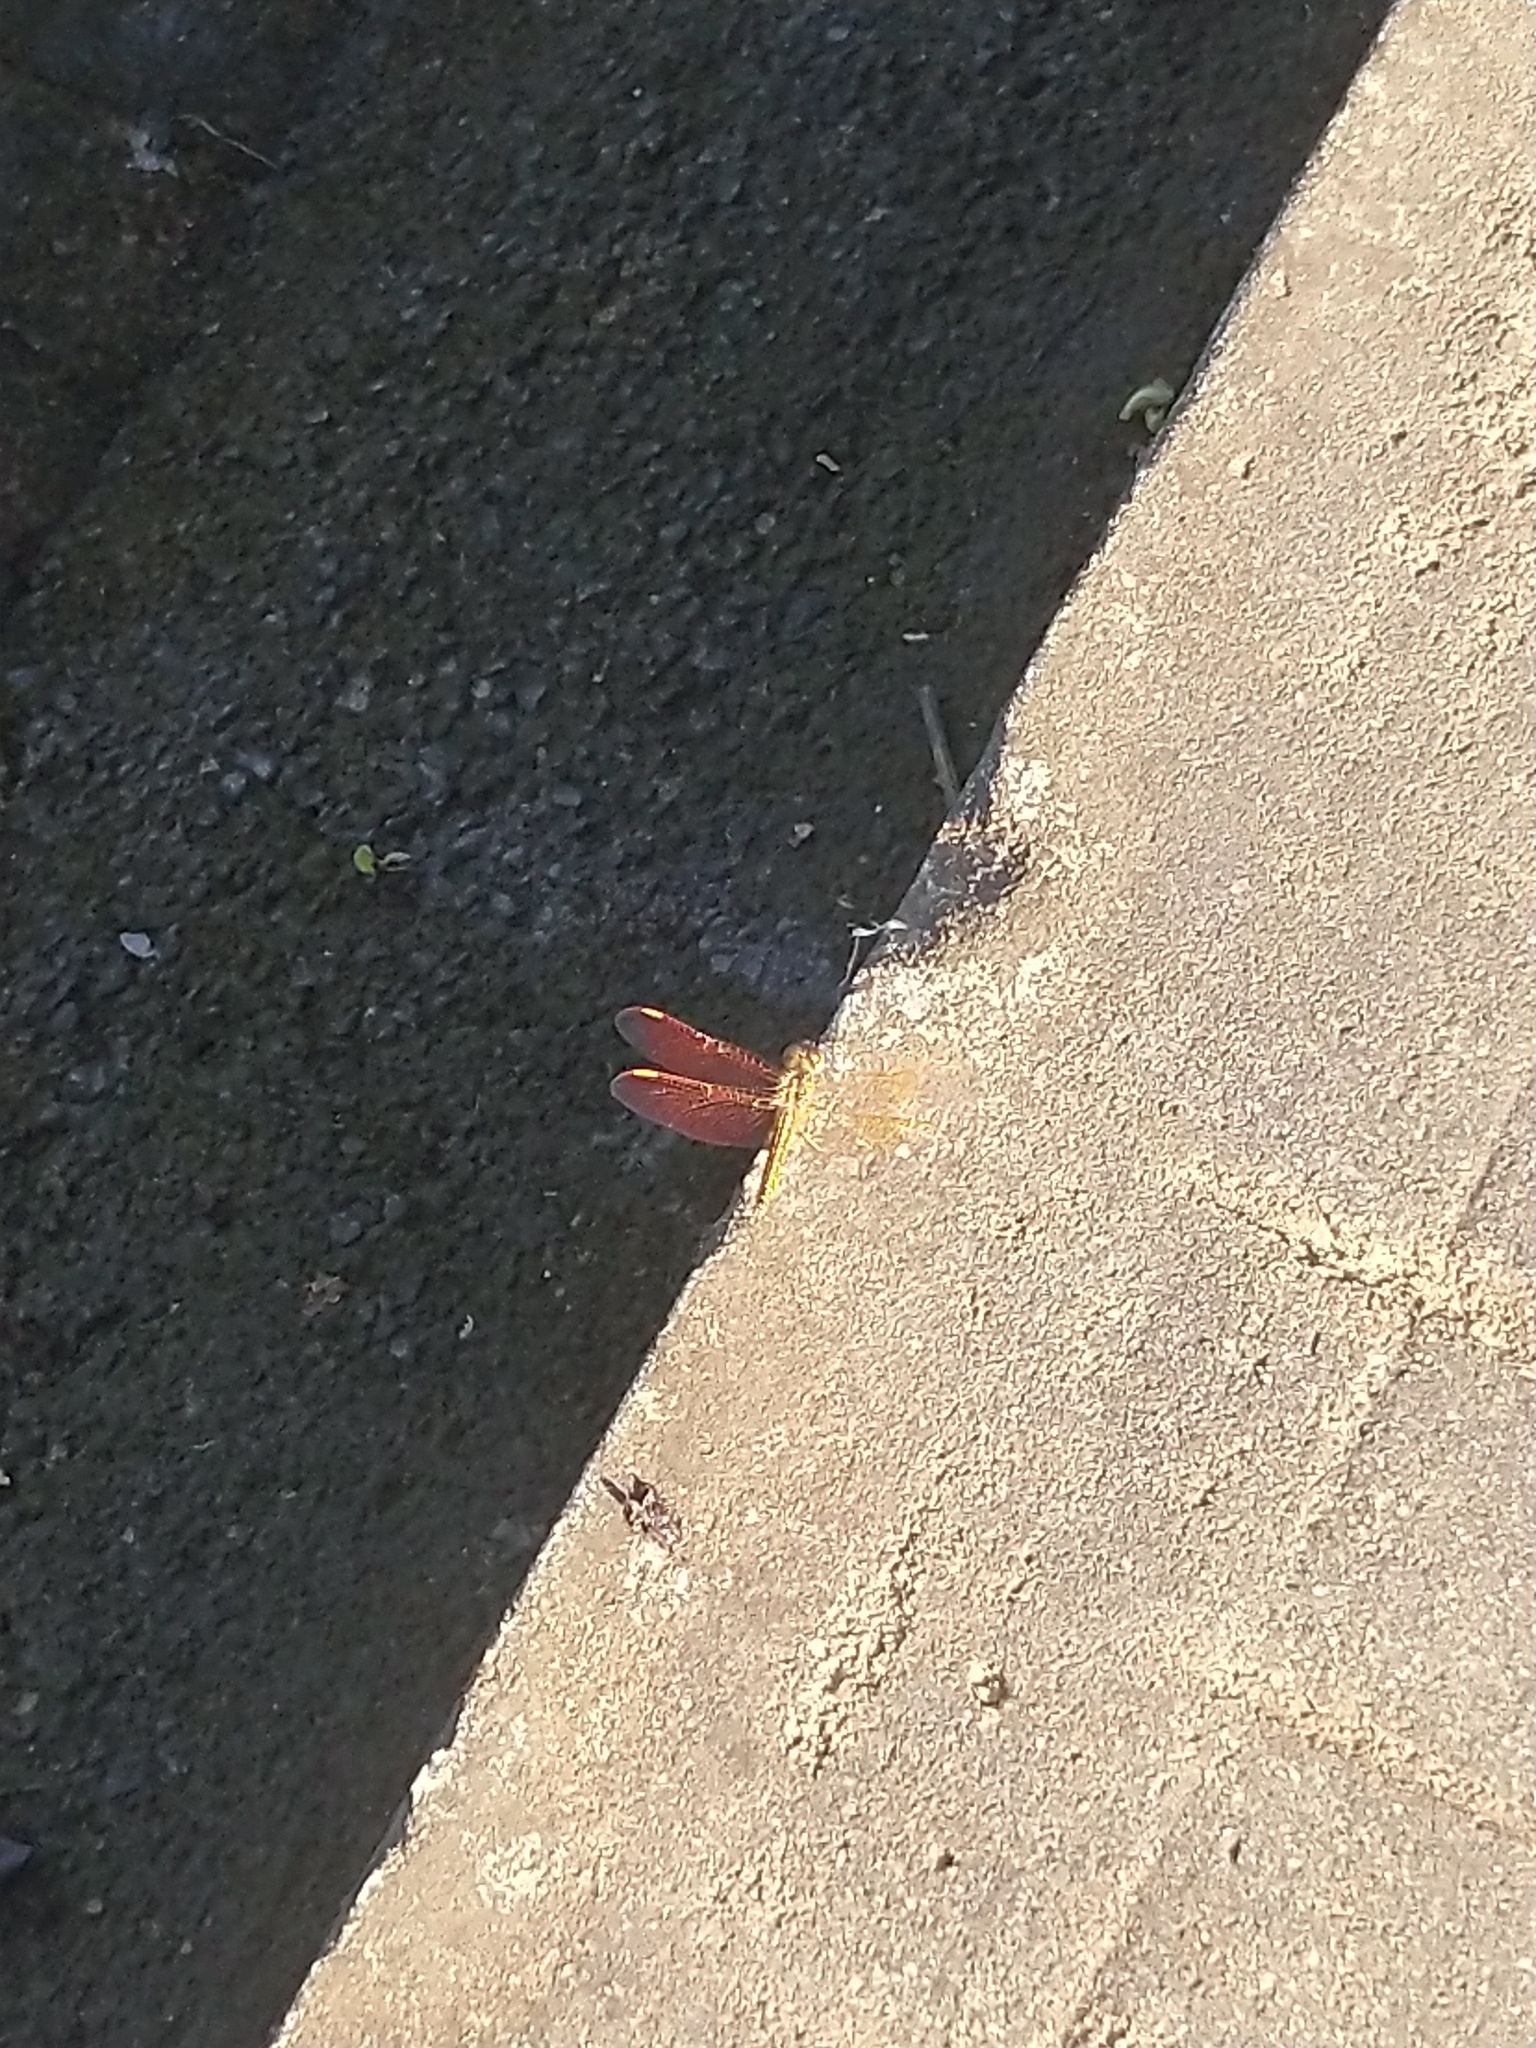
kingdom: Animalia
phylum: Arthropoda
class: Insecta
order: Odonata
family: Libellulidae
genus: Brachythemis
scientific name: Brachythemis contaminata
